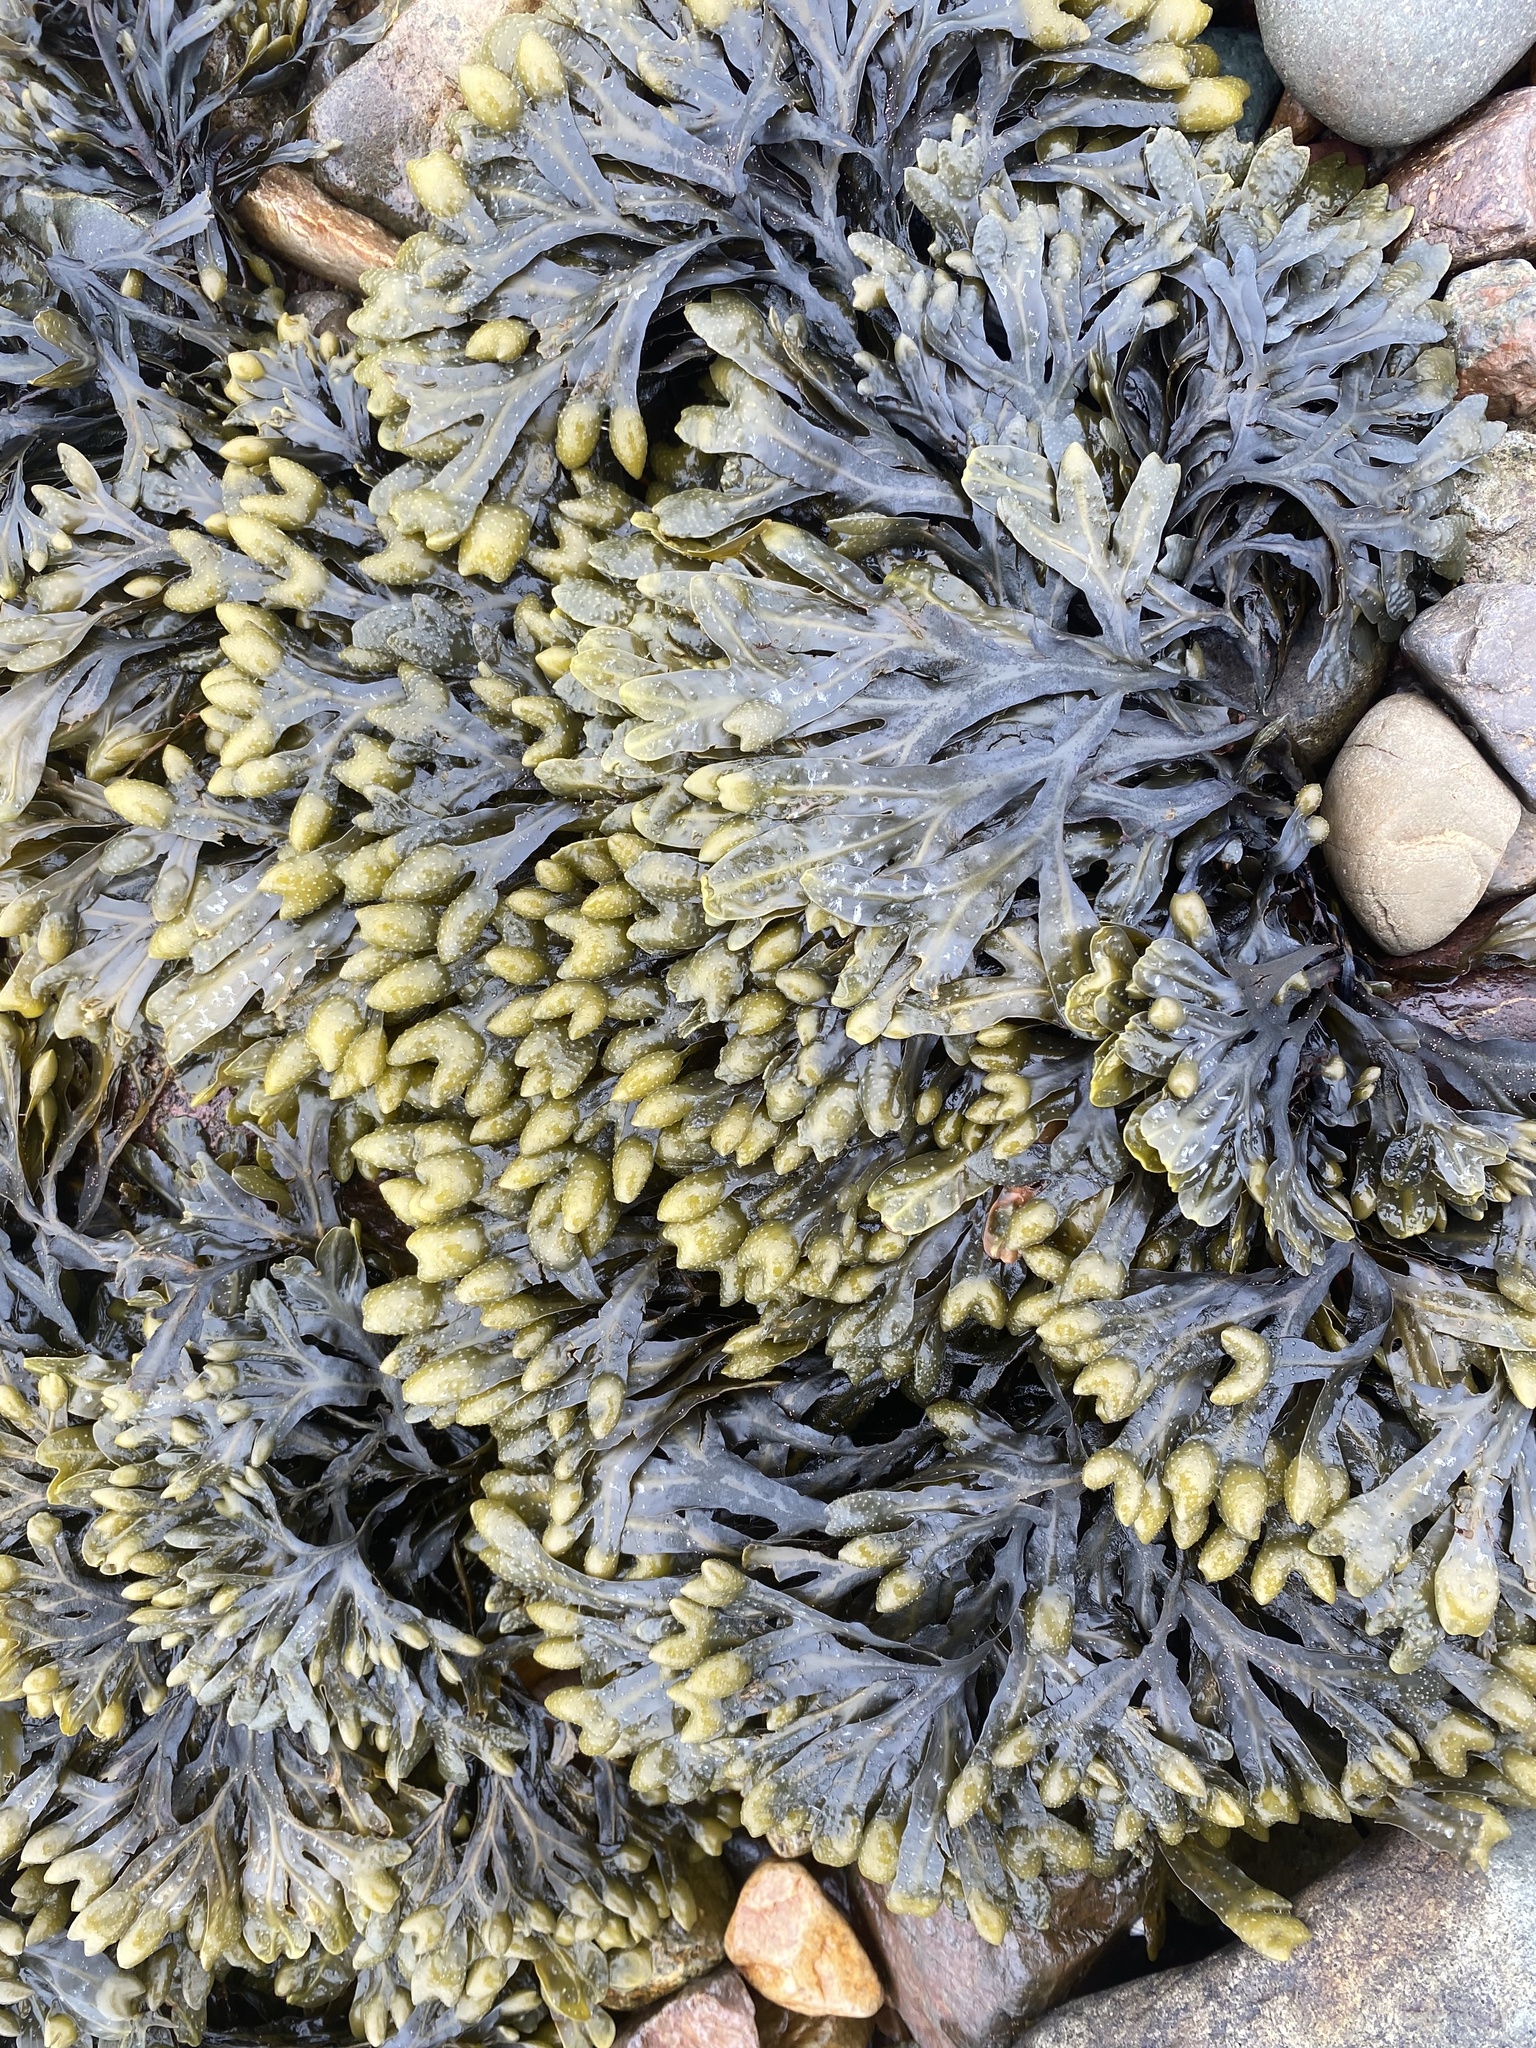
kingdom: Chromista
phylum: Ochrophyta
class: Phaeophyceae
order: Fucales
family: Fucaceae
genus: Fucus
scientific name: Fucus spiralis
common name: Spiral wrack
